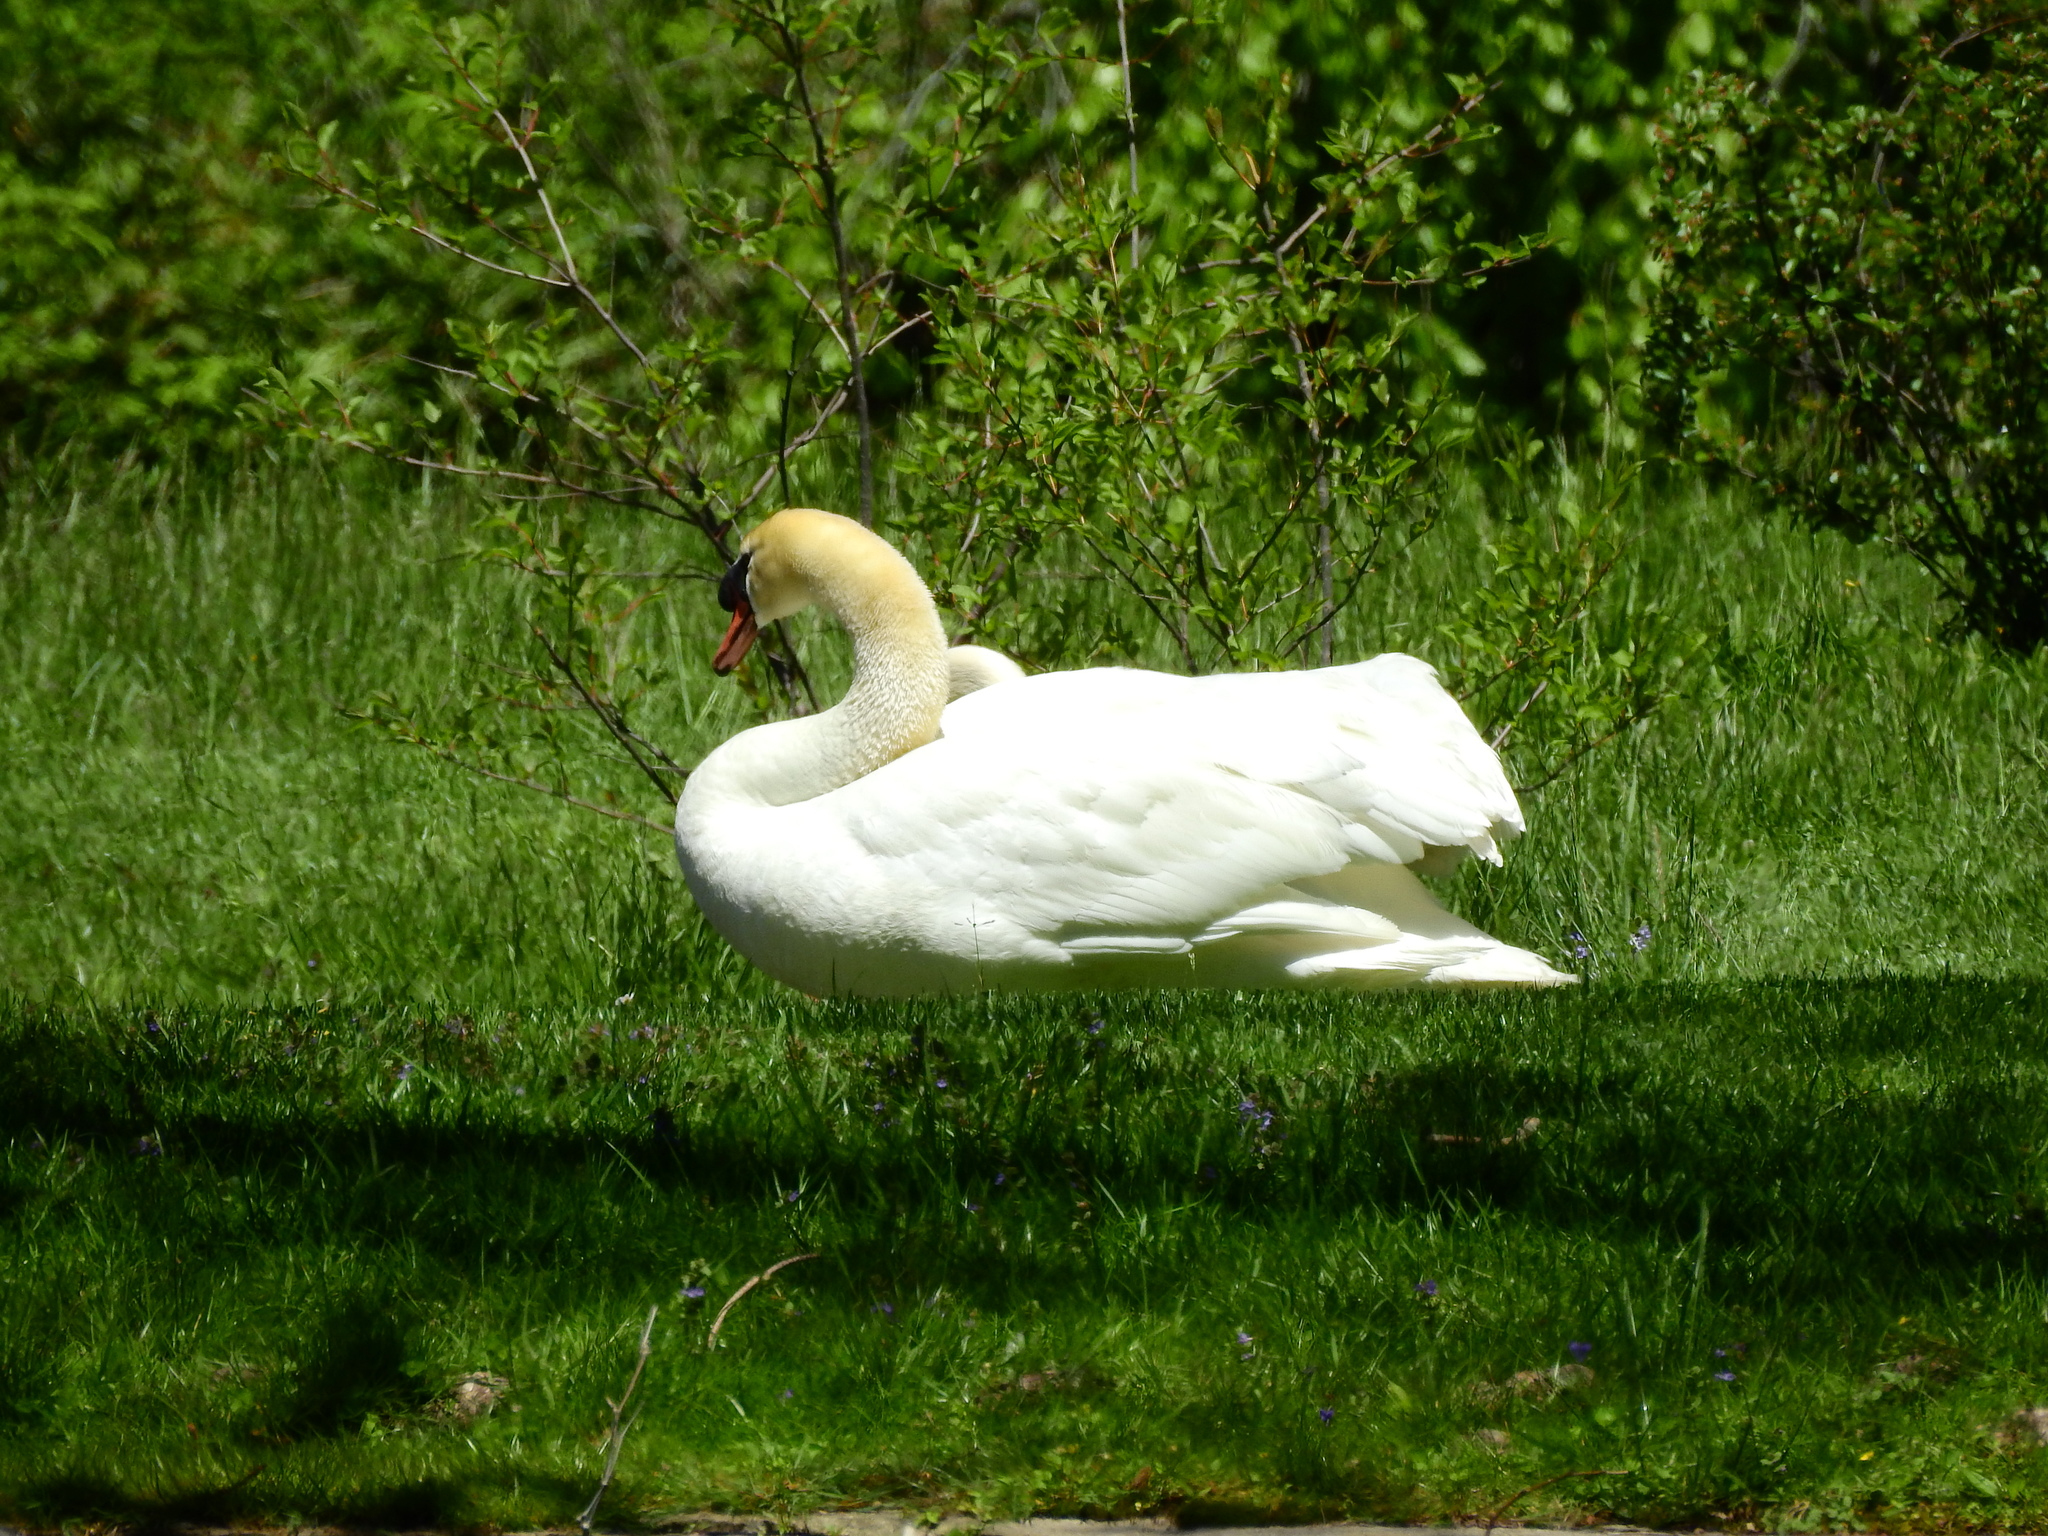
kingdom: Animalia
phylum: Chordata
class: Aves
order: Anseriformes
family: Anatidae
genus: Cygnus
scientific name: Cygnus olor
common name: Mute swan
